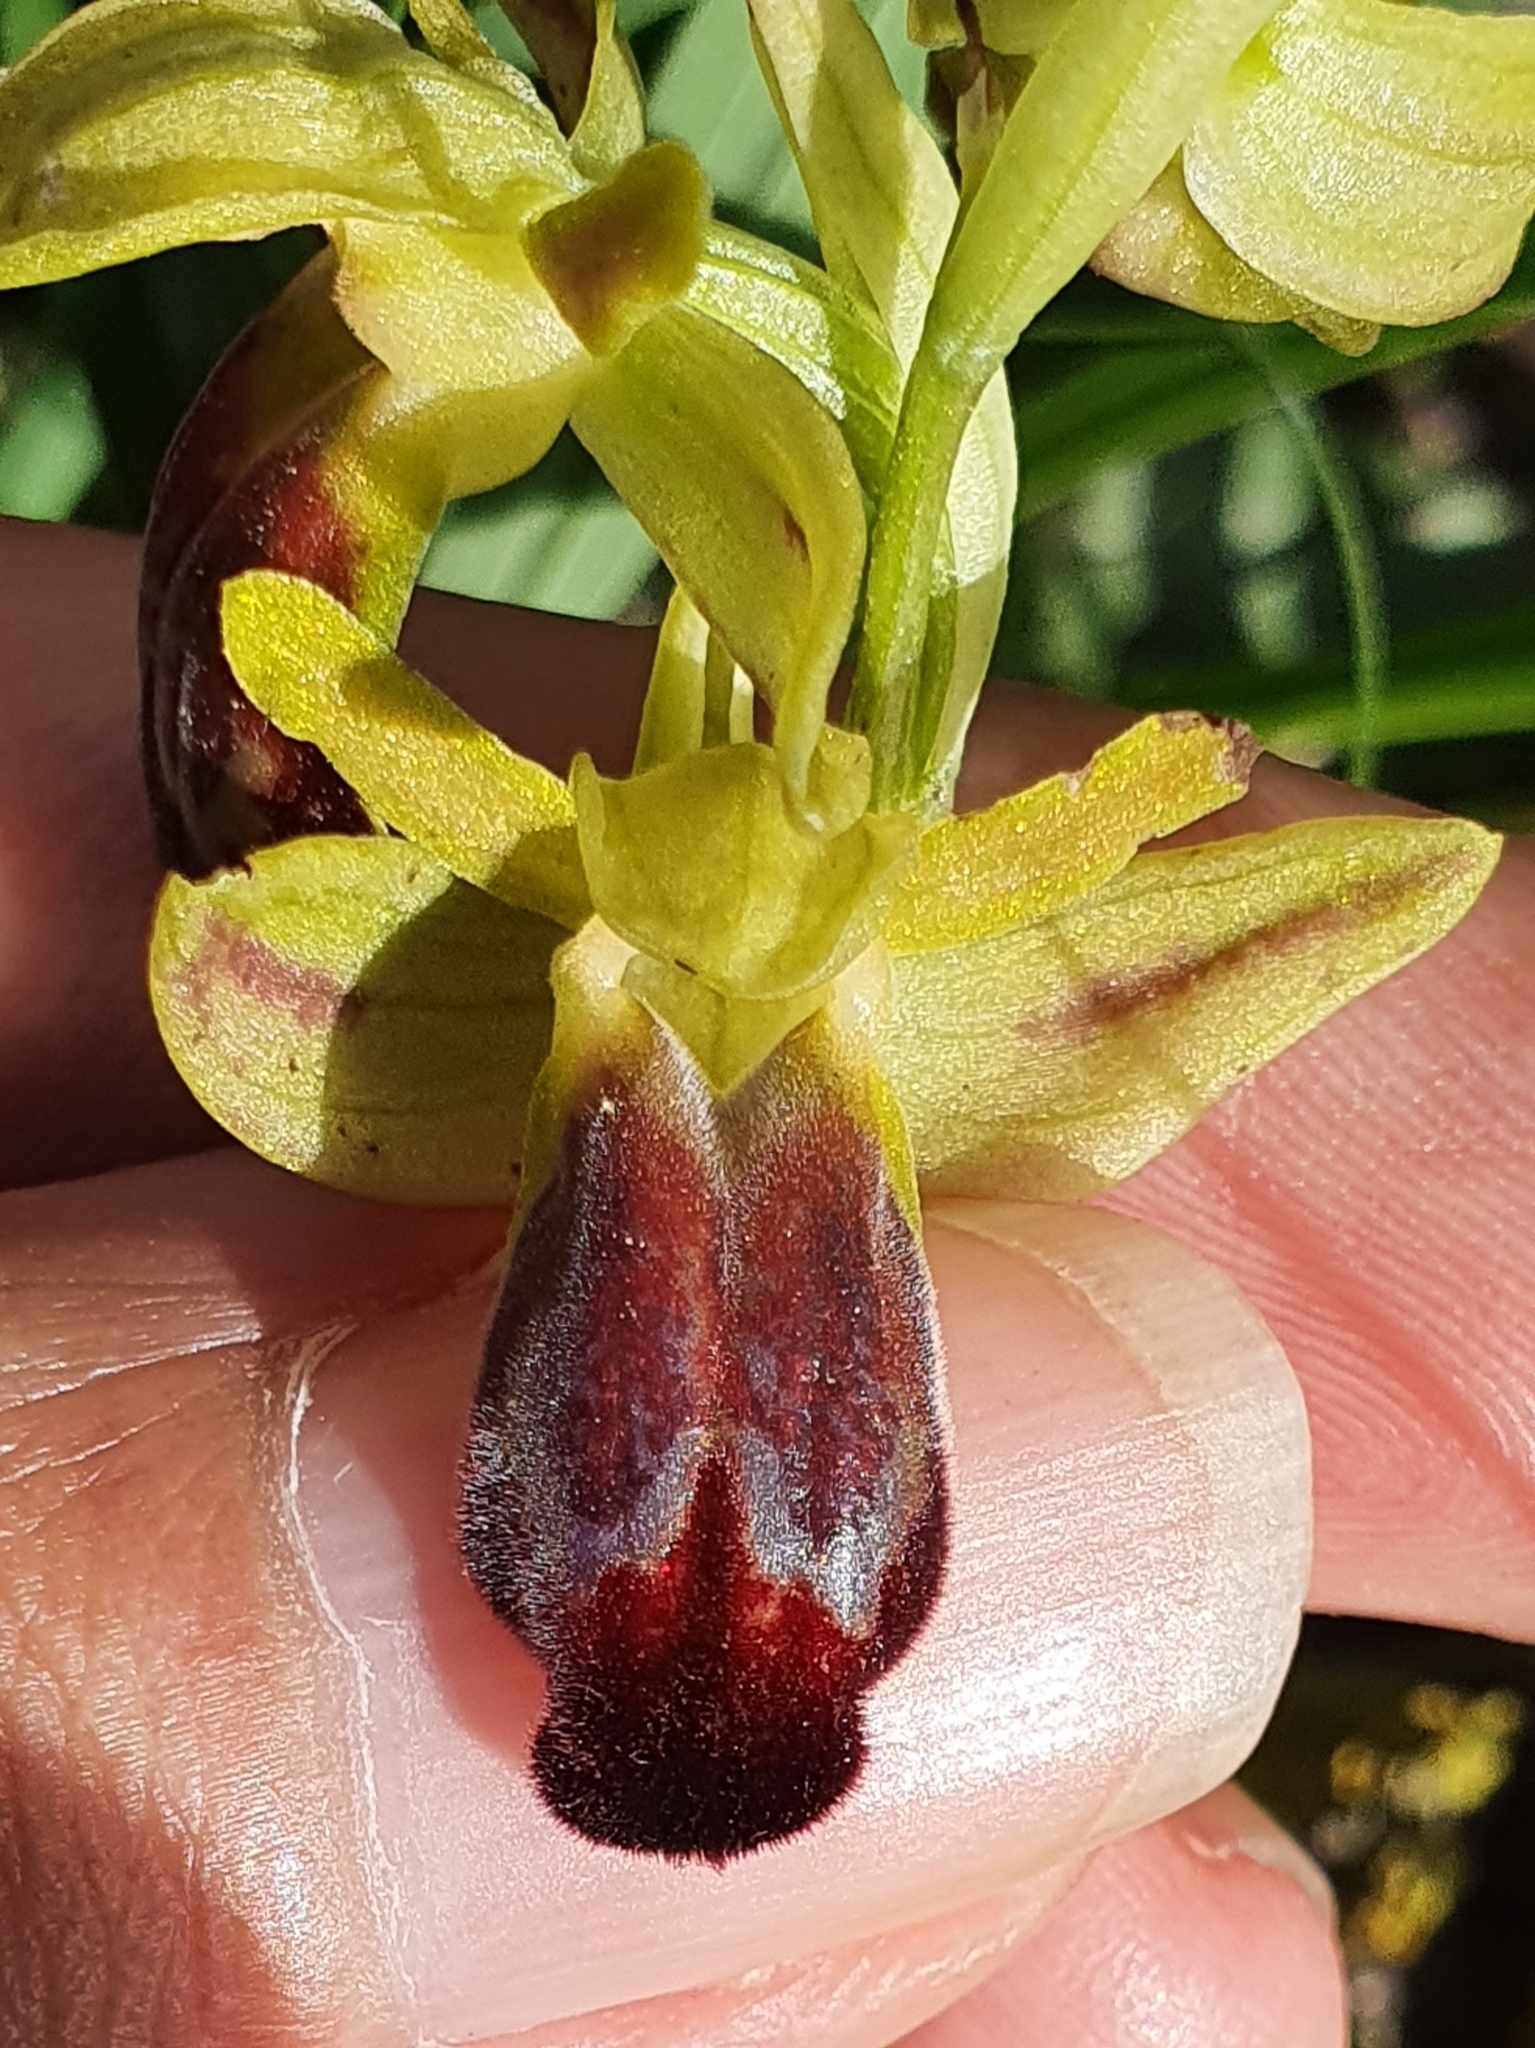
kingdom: Plantae
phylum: Tracheophyta
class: Liliopsida
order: Asparagales
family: Orchidaceae
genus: Ophrys
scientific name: Ophrys fusca
